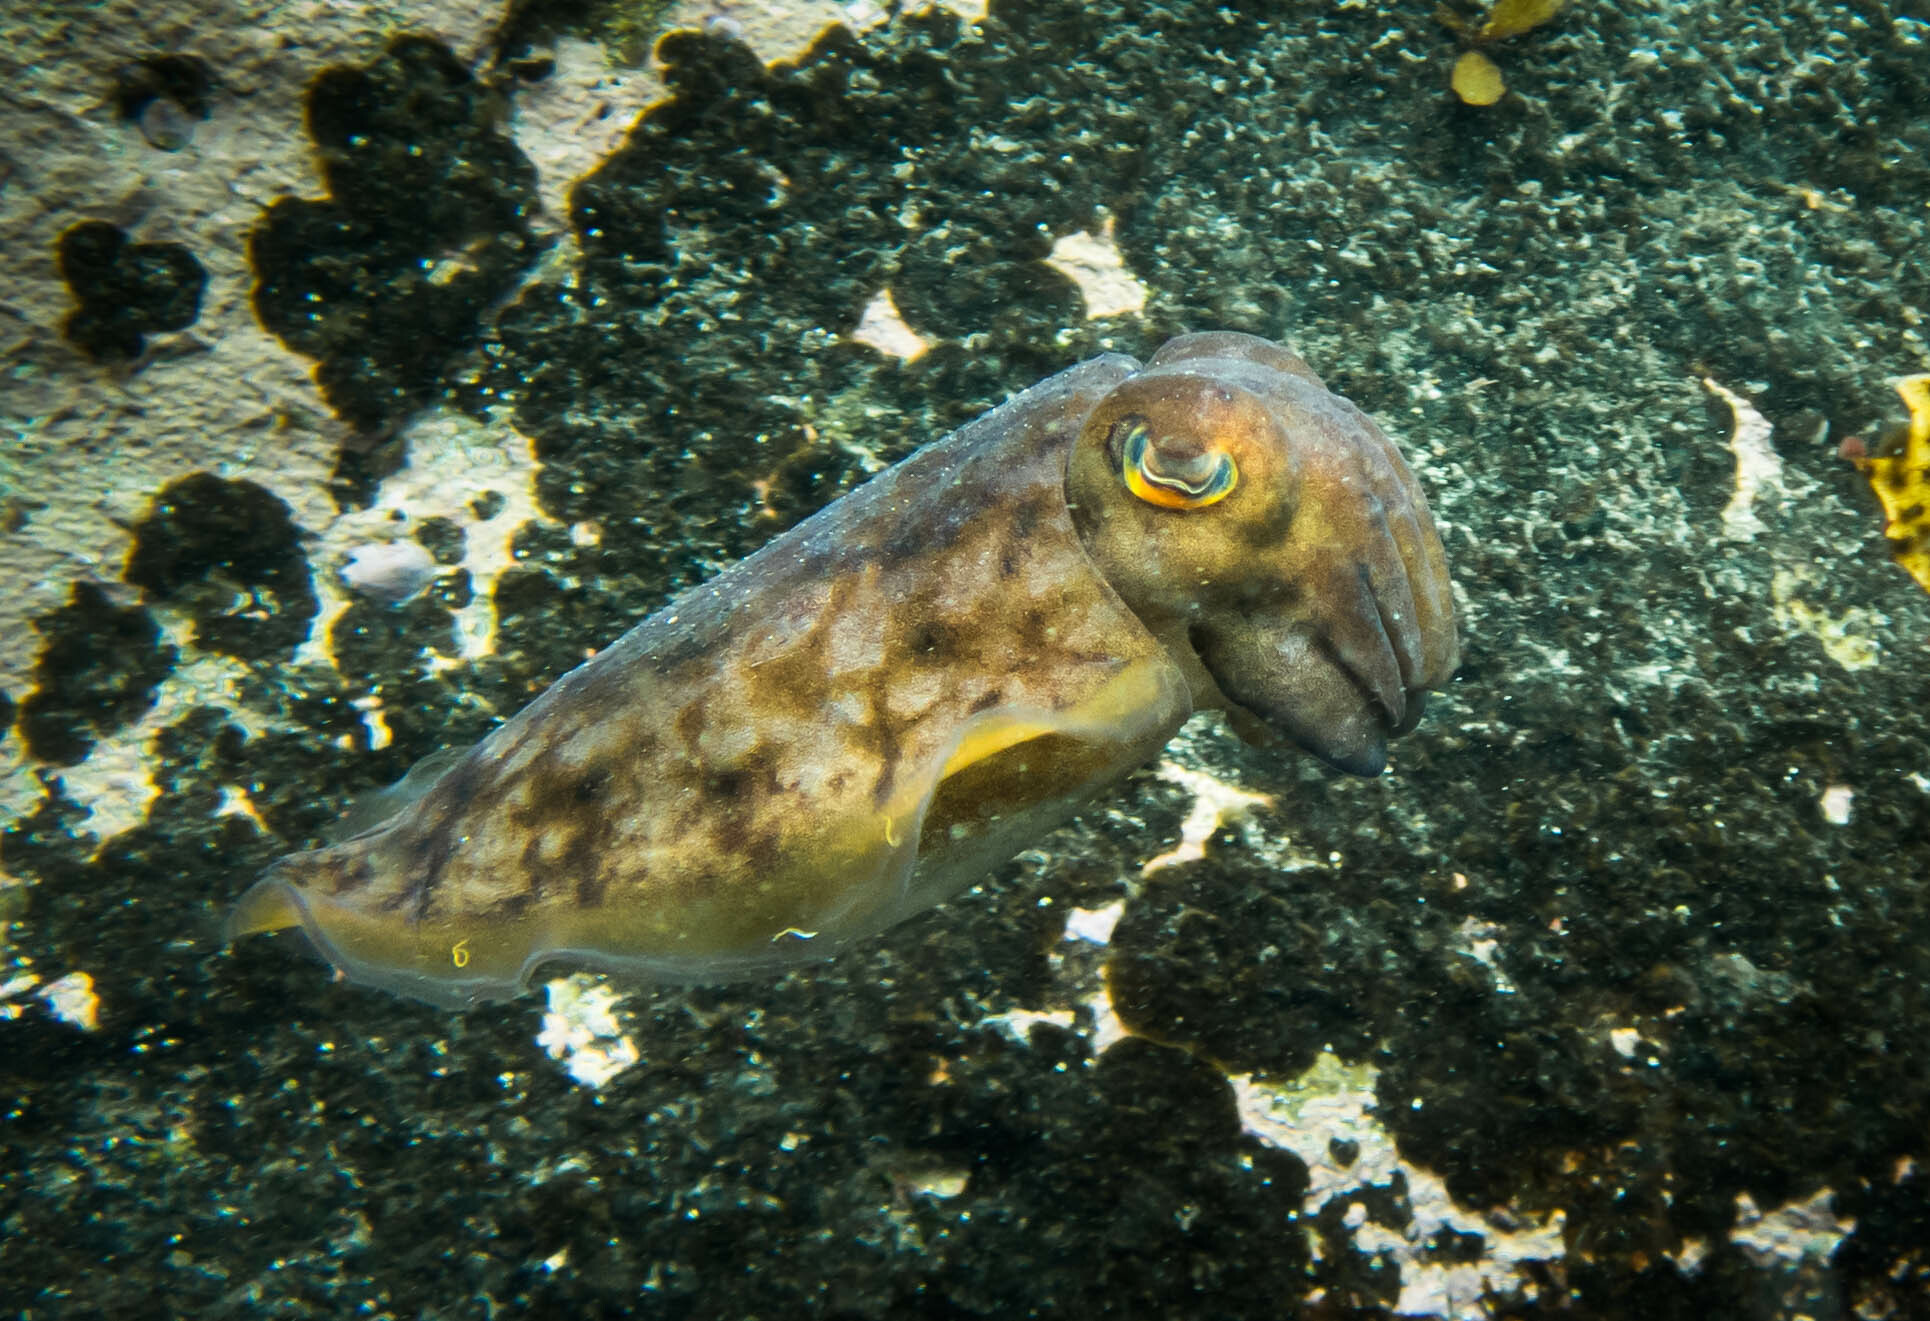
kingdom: Animalia
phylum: Mollusca
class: Cephalopoda
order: Sepiida
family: Sepiidae
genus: Ascarosepion
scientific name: Ascarosepion mestus
